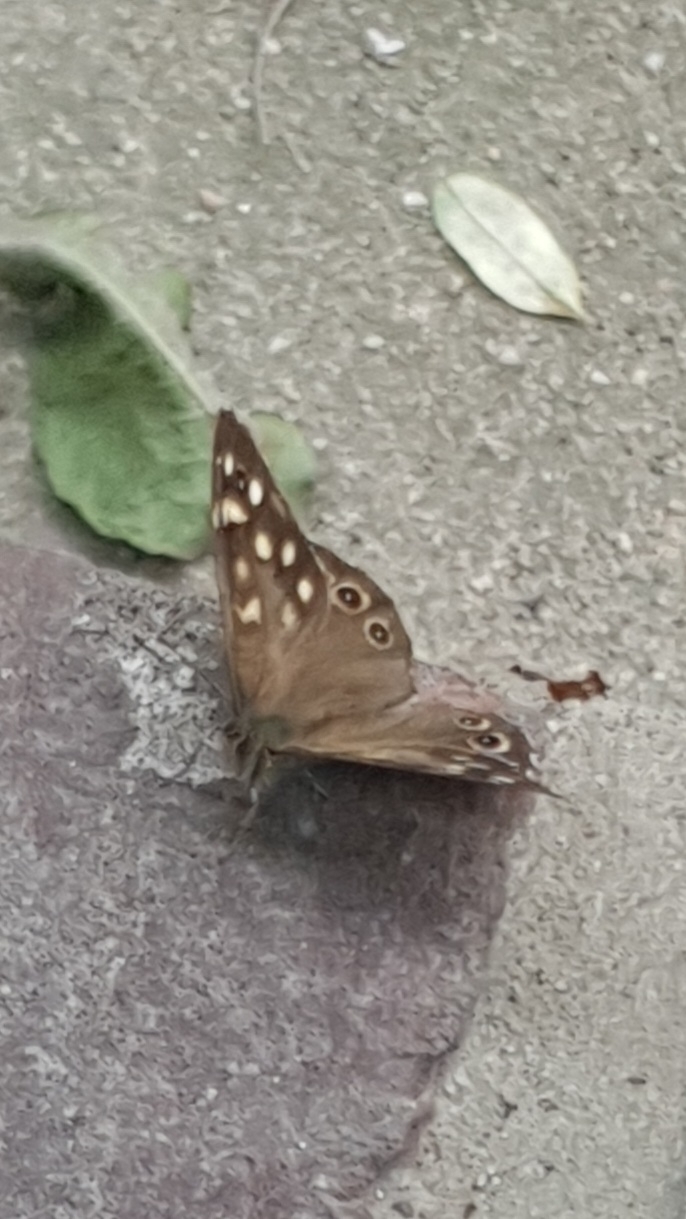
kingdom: Animalia
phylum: Arthropoda
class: Insecta
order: Lepidoptera
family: Nymphalidae
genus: Pararge
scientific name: Pararge aegeria
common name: Speckled wood
